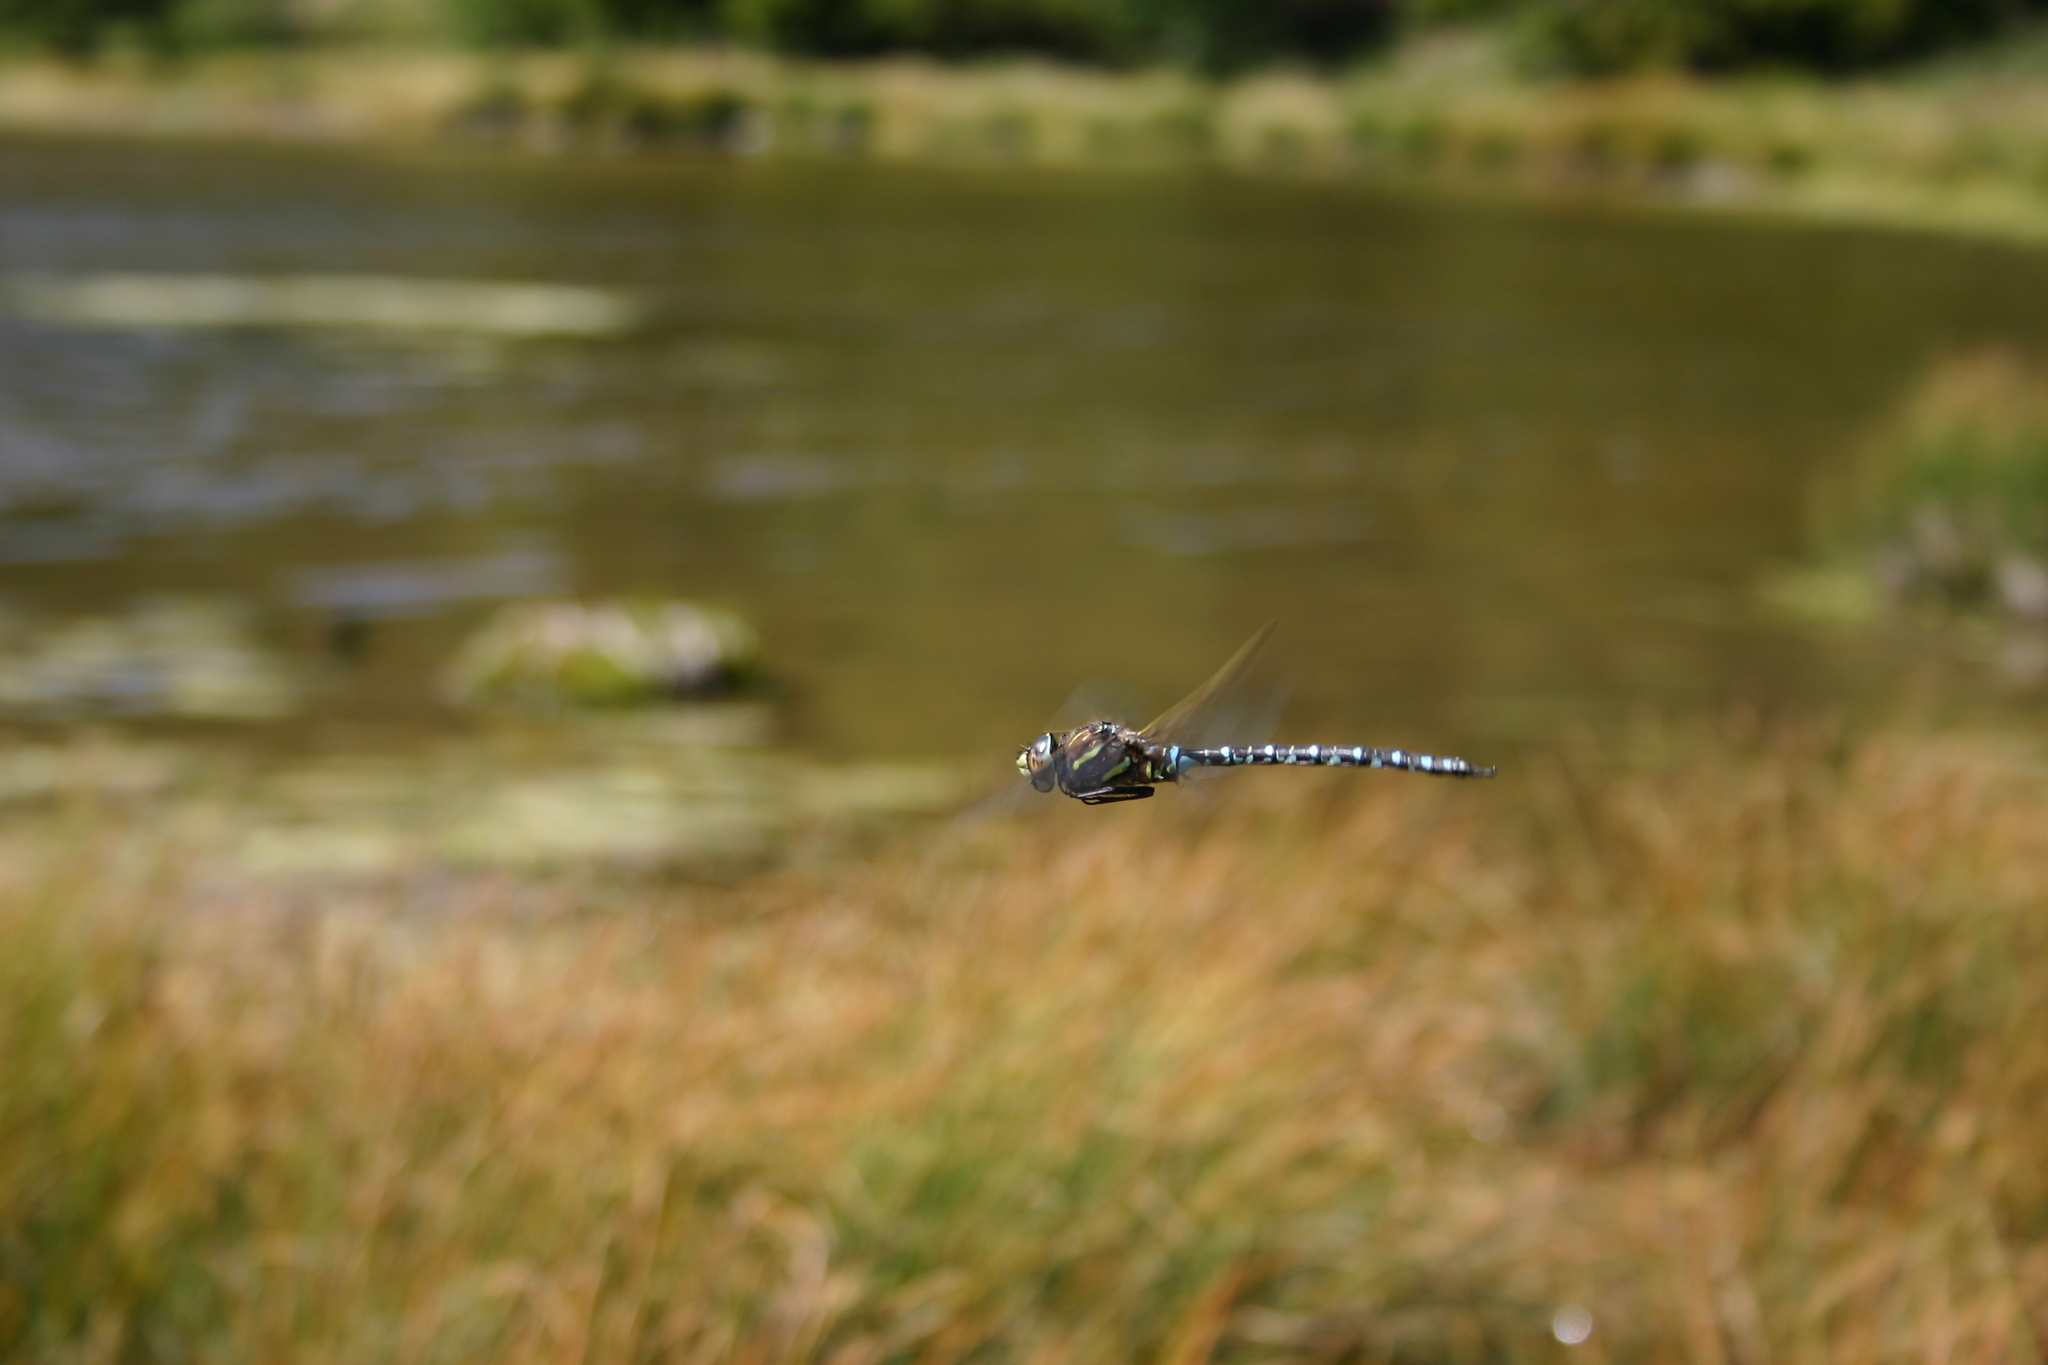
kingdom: Animalia
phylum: Arthropoda
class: Insecta
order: Odonata
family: Aeshnidae
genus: Aeshna
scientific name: Aeshna juncea
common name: Moorland hawker
